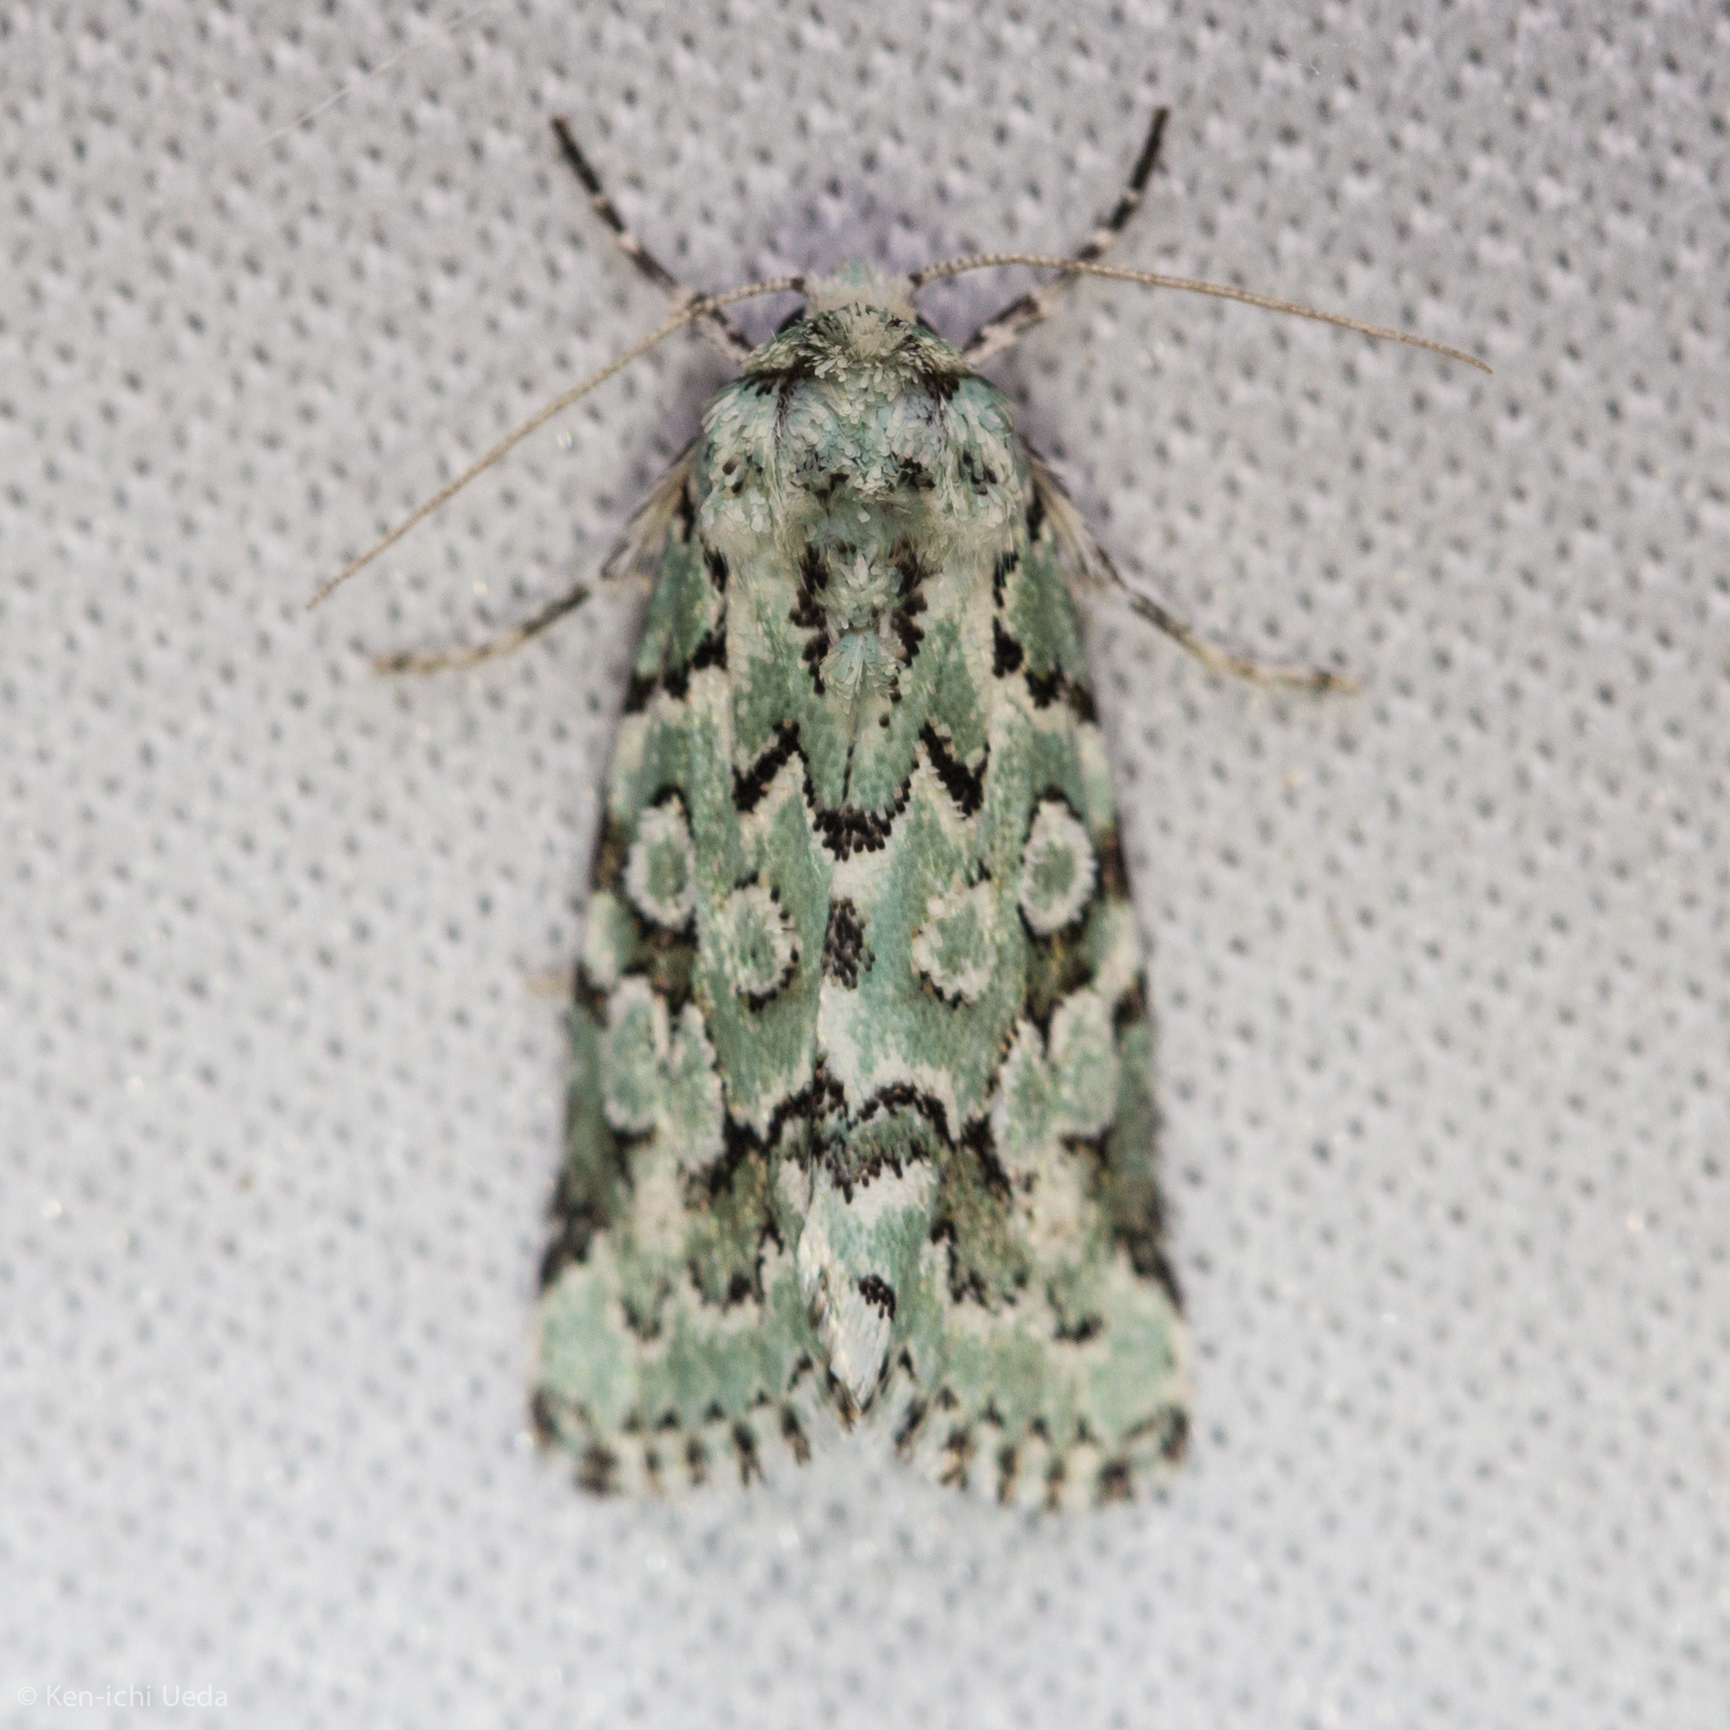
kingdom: Animalia
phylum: Arthropoda
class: Insecta
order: Lepidoptera
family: Noctuidae
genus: Bryolymnia
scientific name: Bryolymnia viridata
